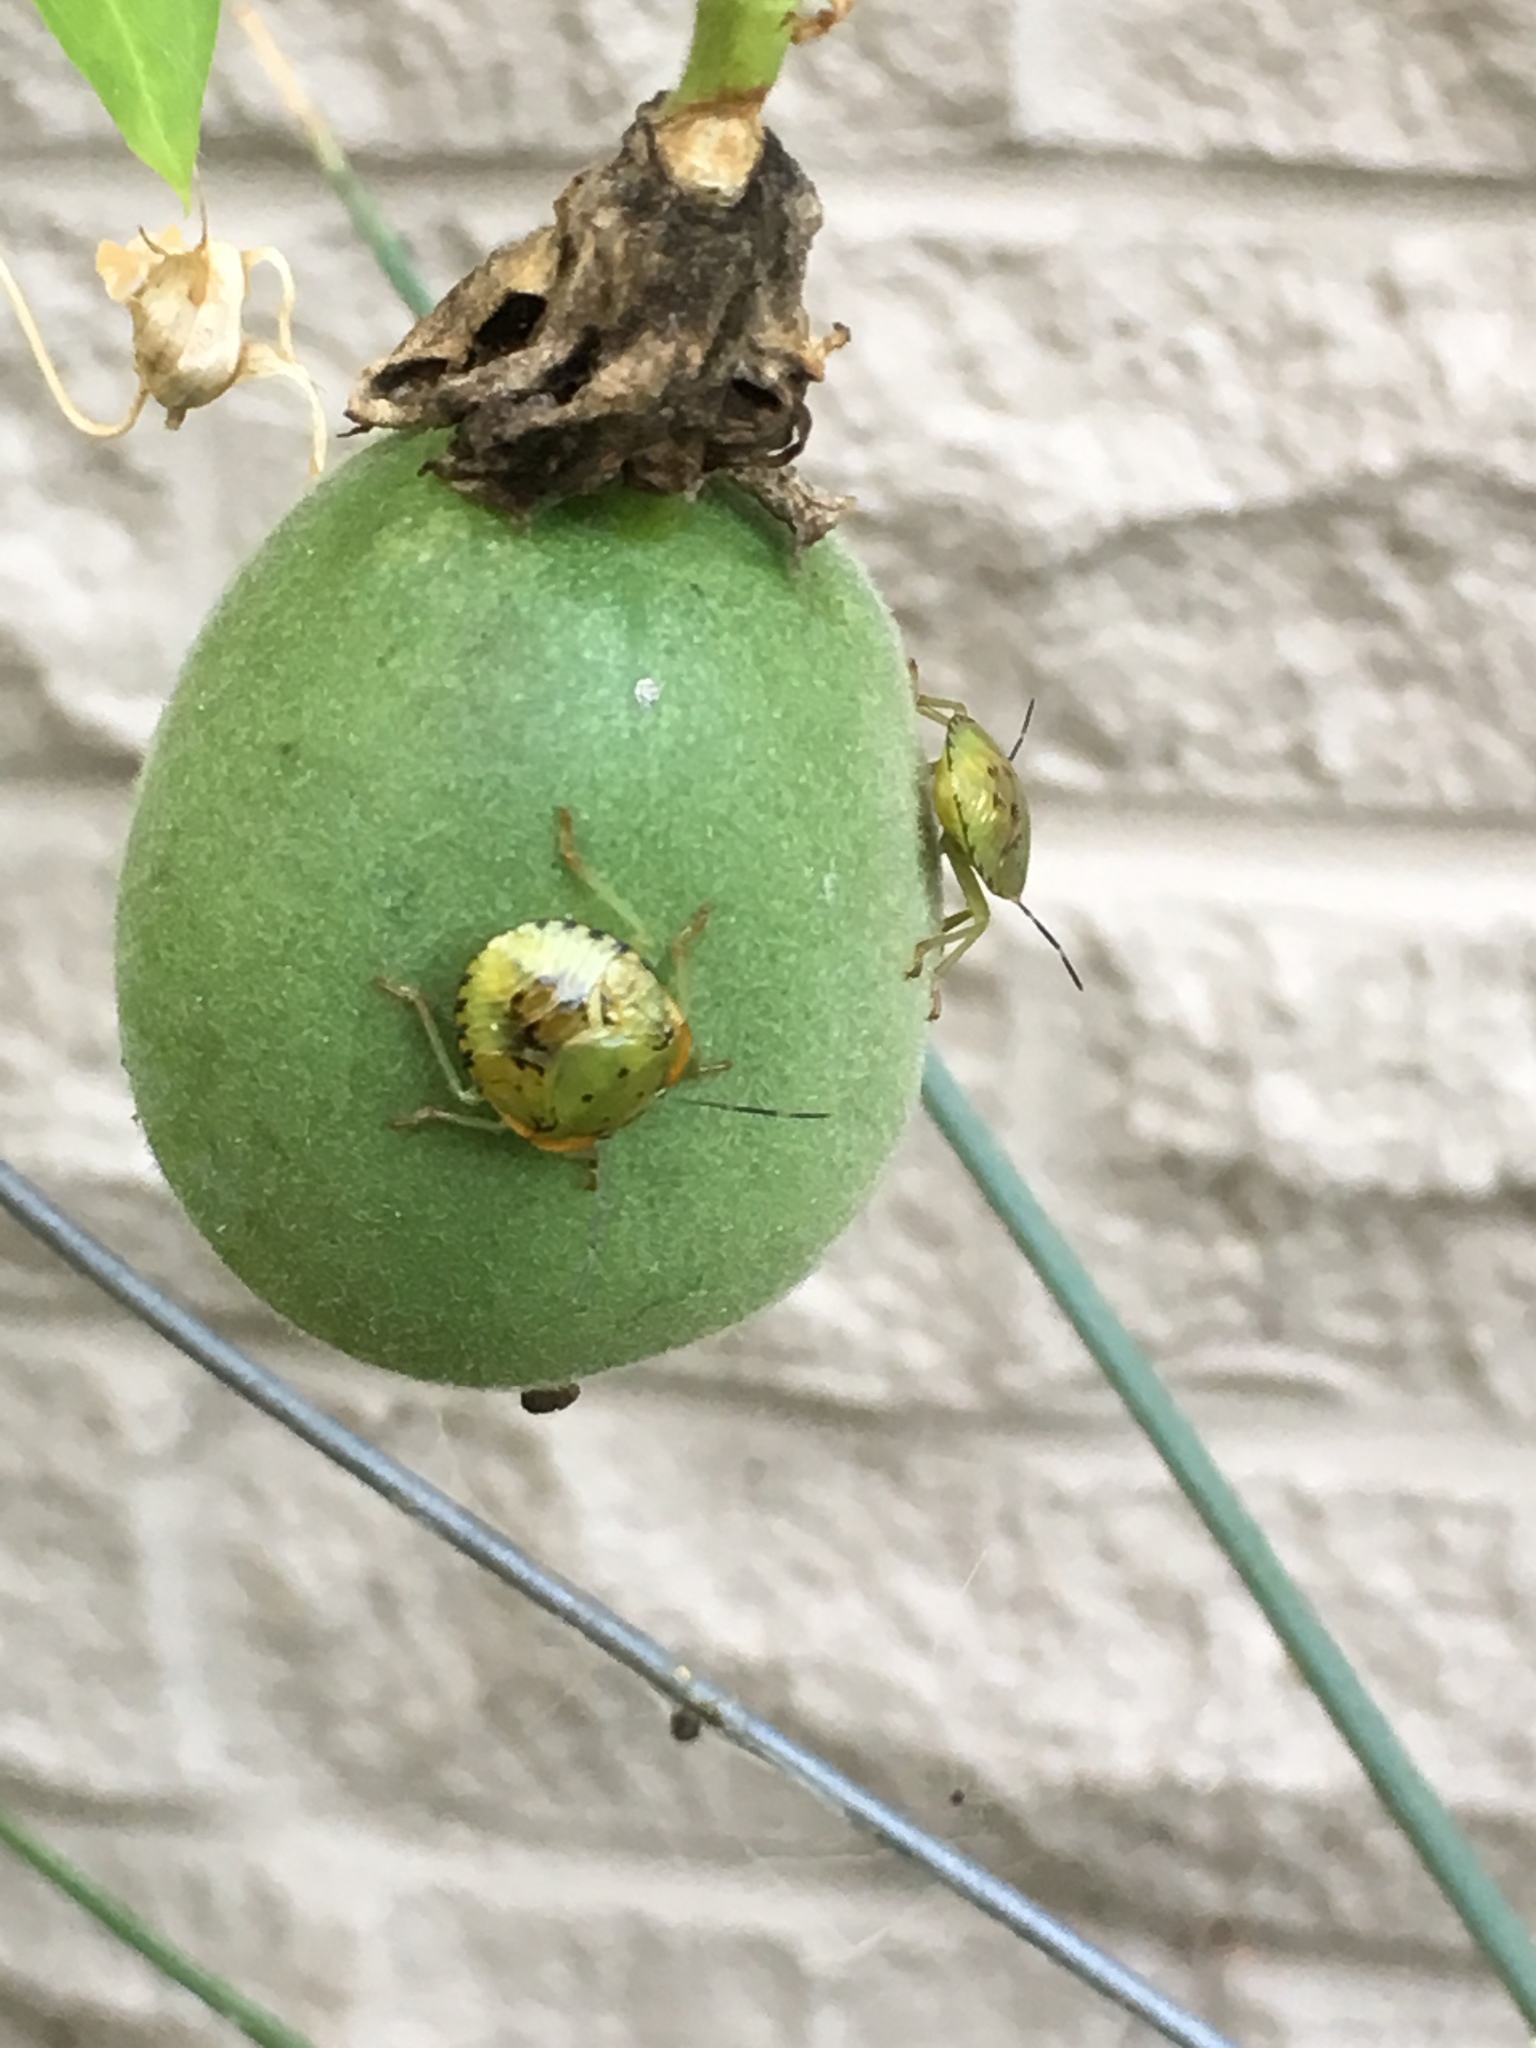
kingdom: Animalia
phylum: Arthropoda
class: Insecta
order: Hemiptera
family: Pentatomidae
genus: Chinavia
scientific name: Chinavia hilaris
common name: Green stink bug
